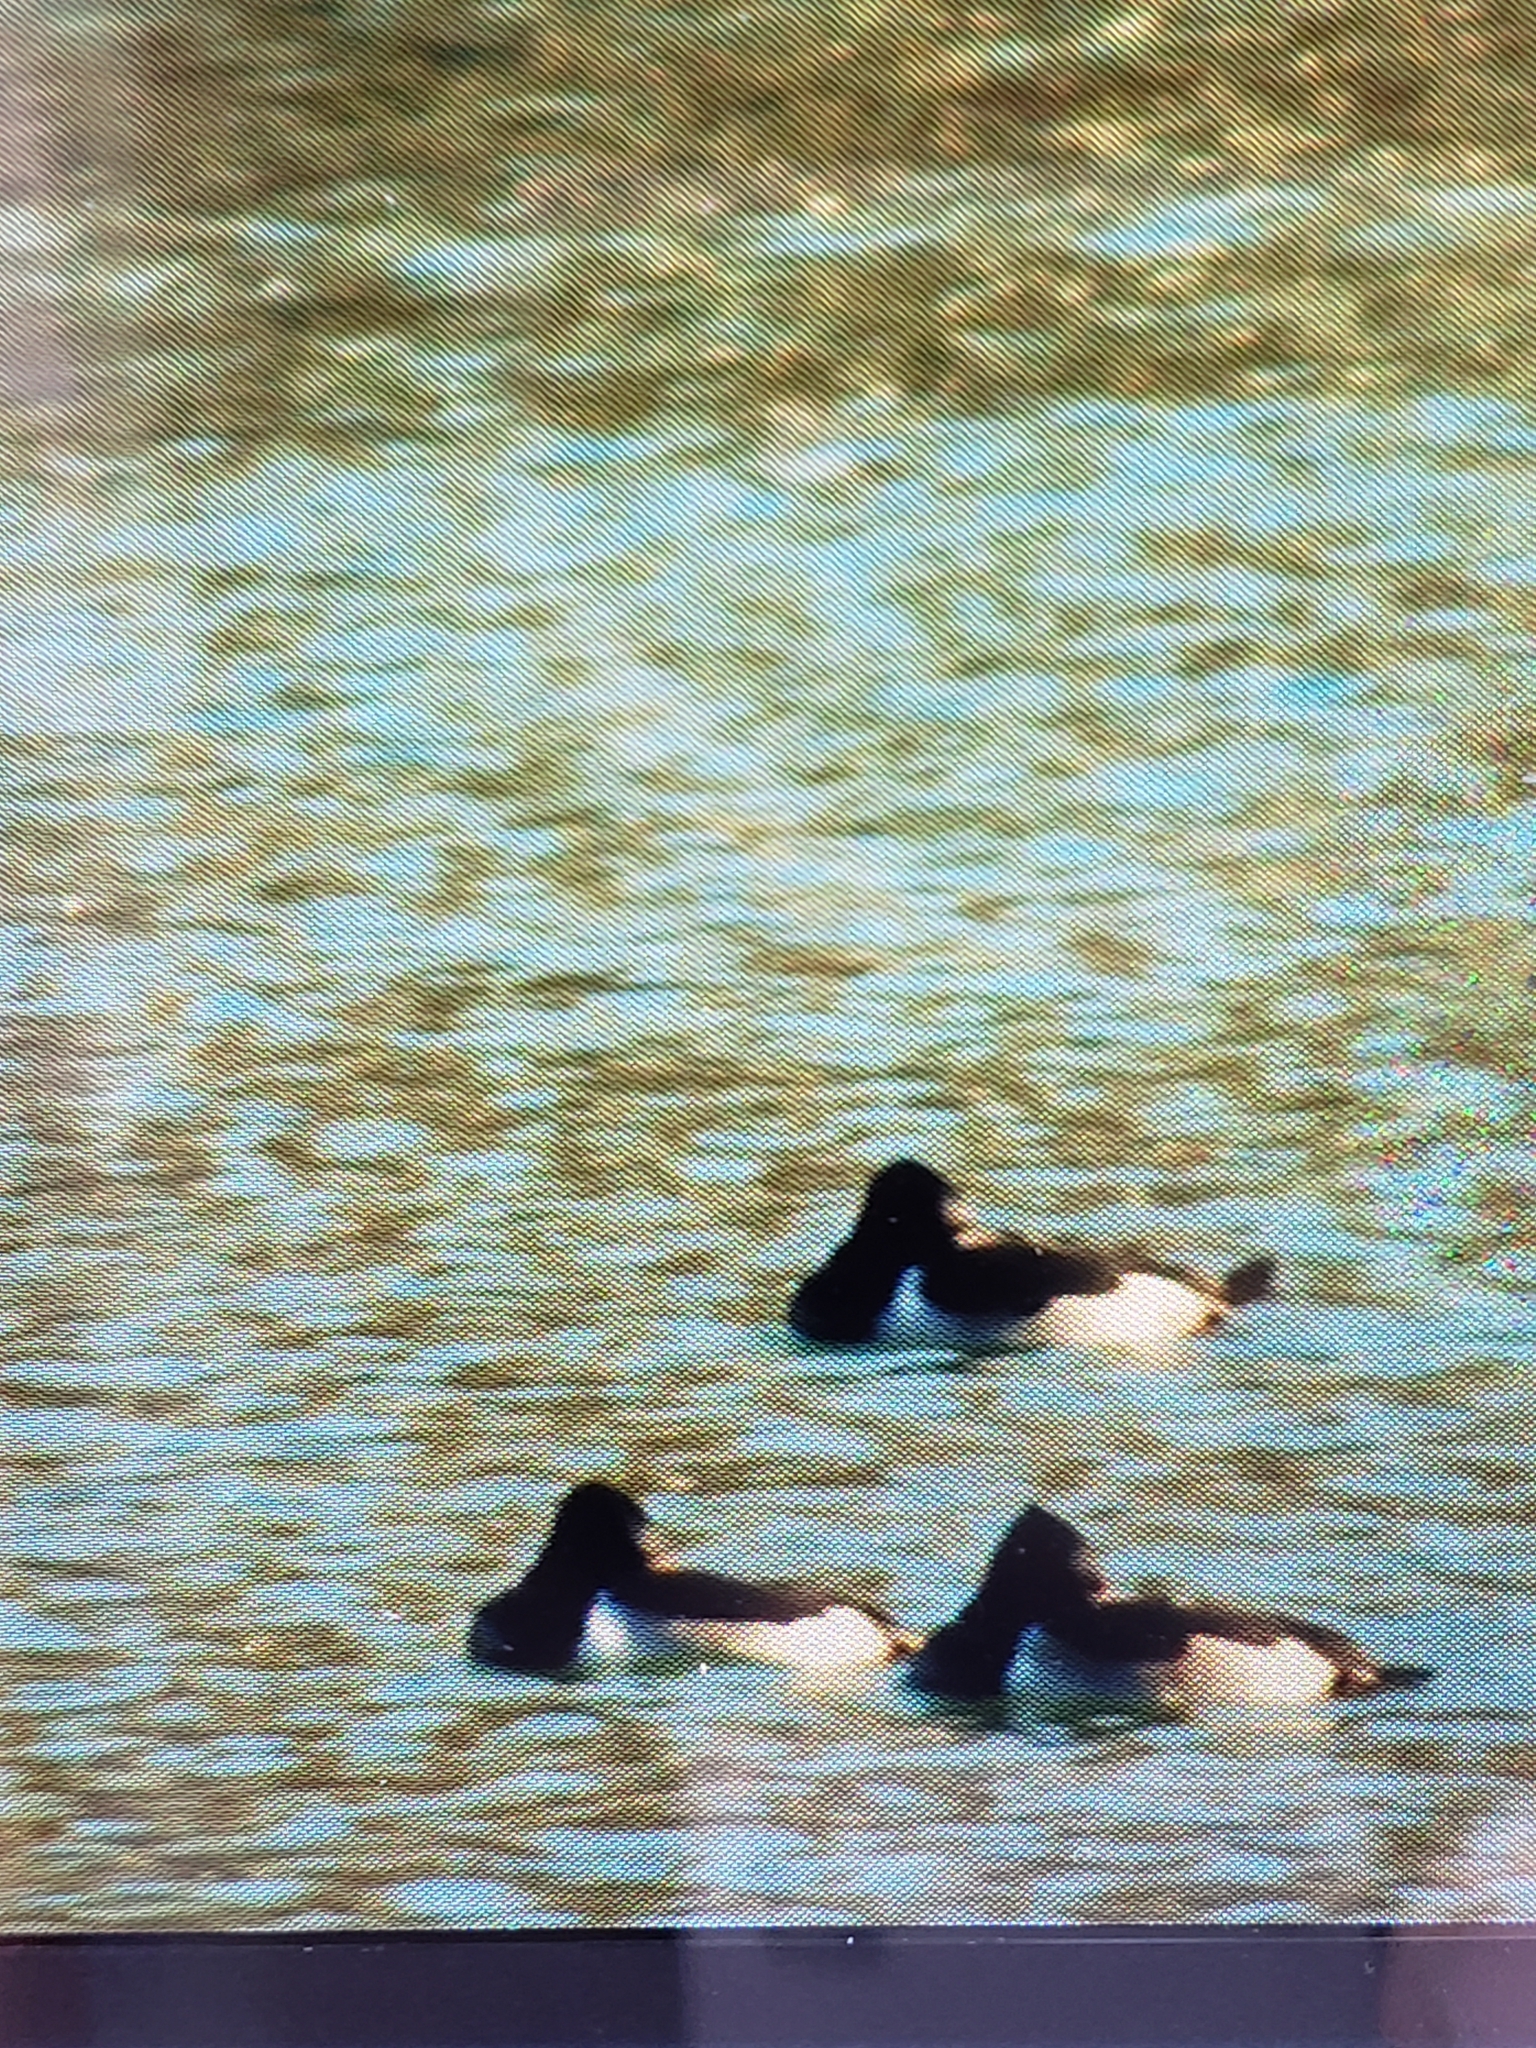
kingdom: Animalia
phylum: Chordata
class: Aves
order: Anseriformes
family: Anatidae
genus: Aythya
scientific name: Aythya collaris
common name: Ring-necked duck
